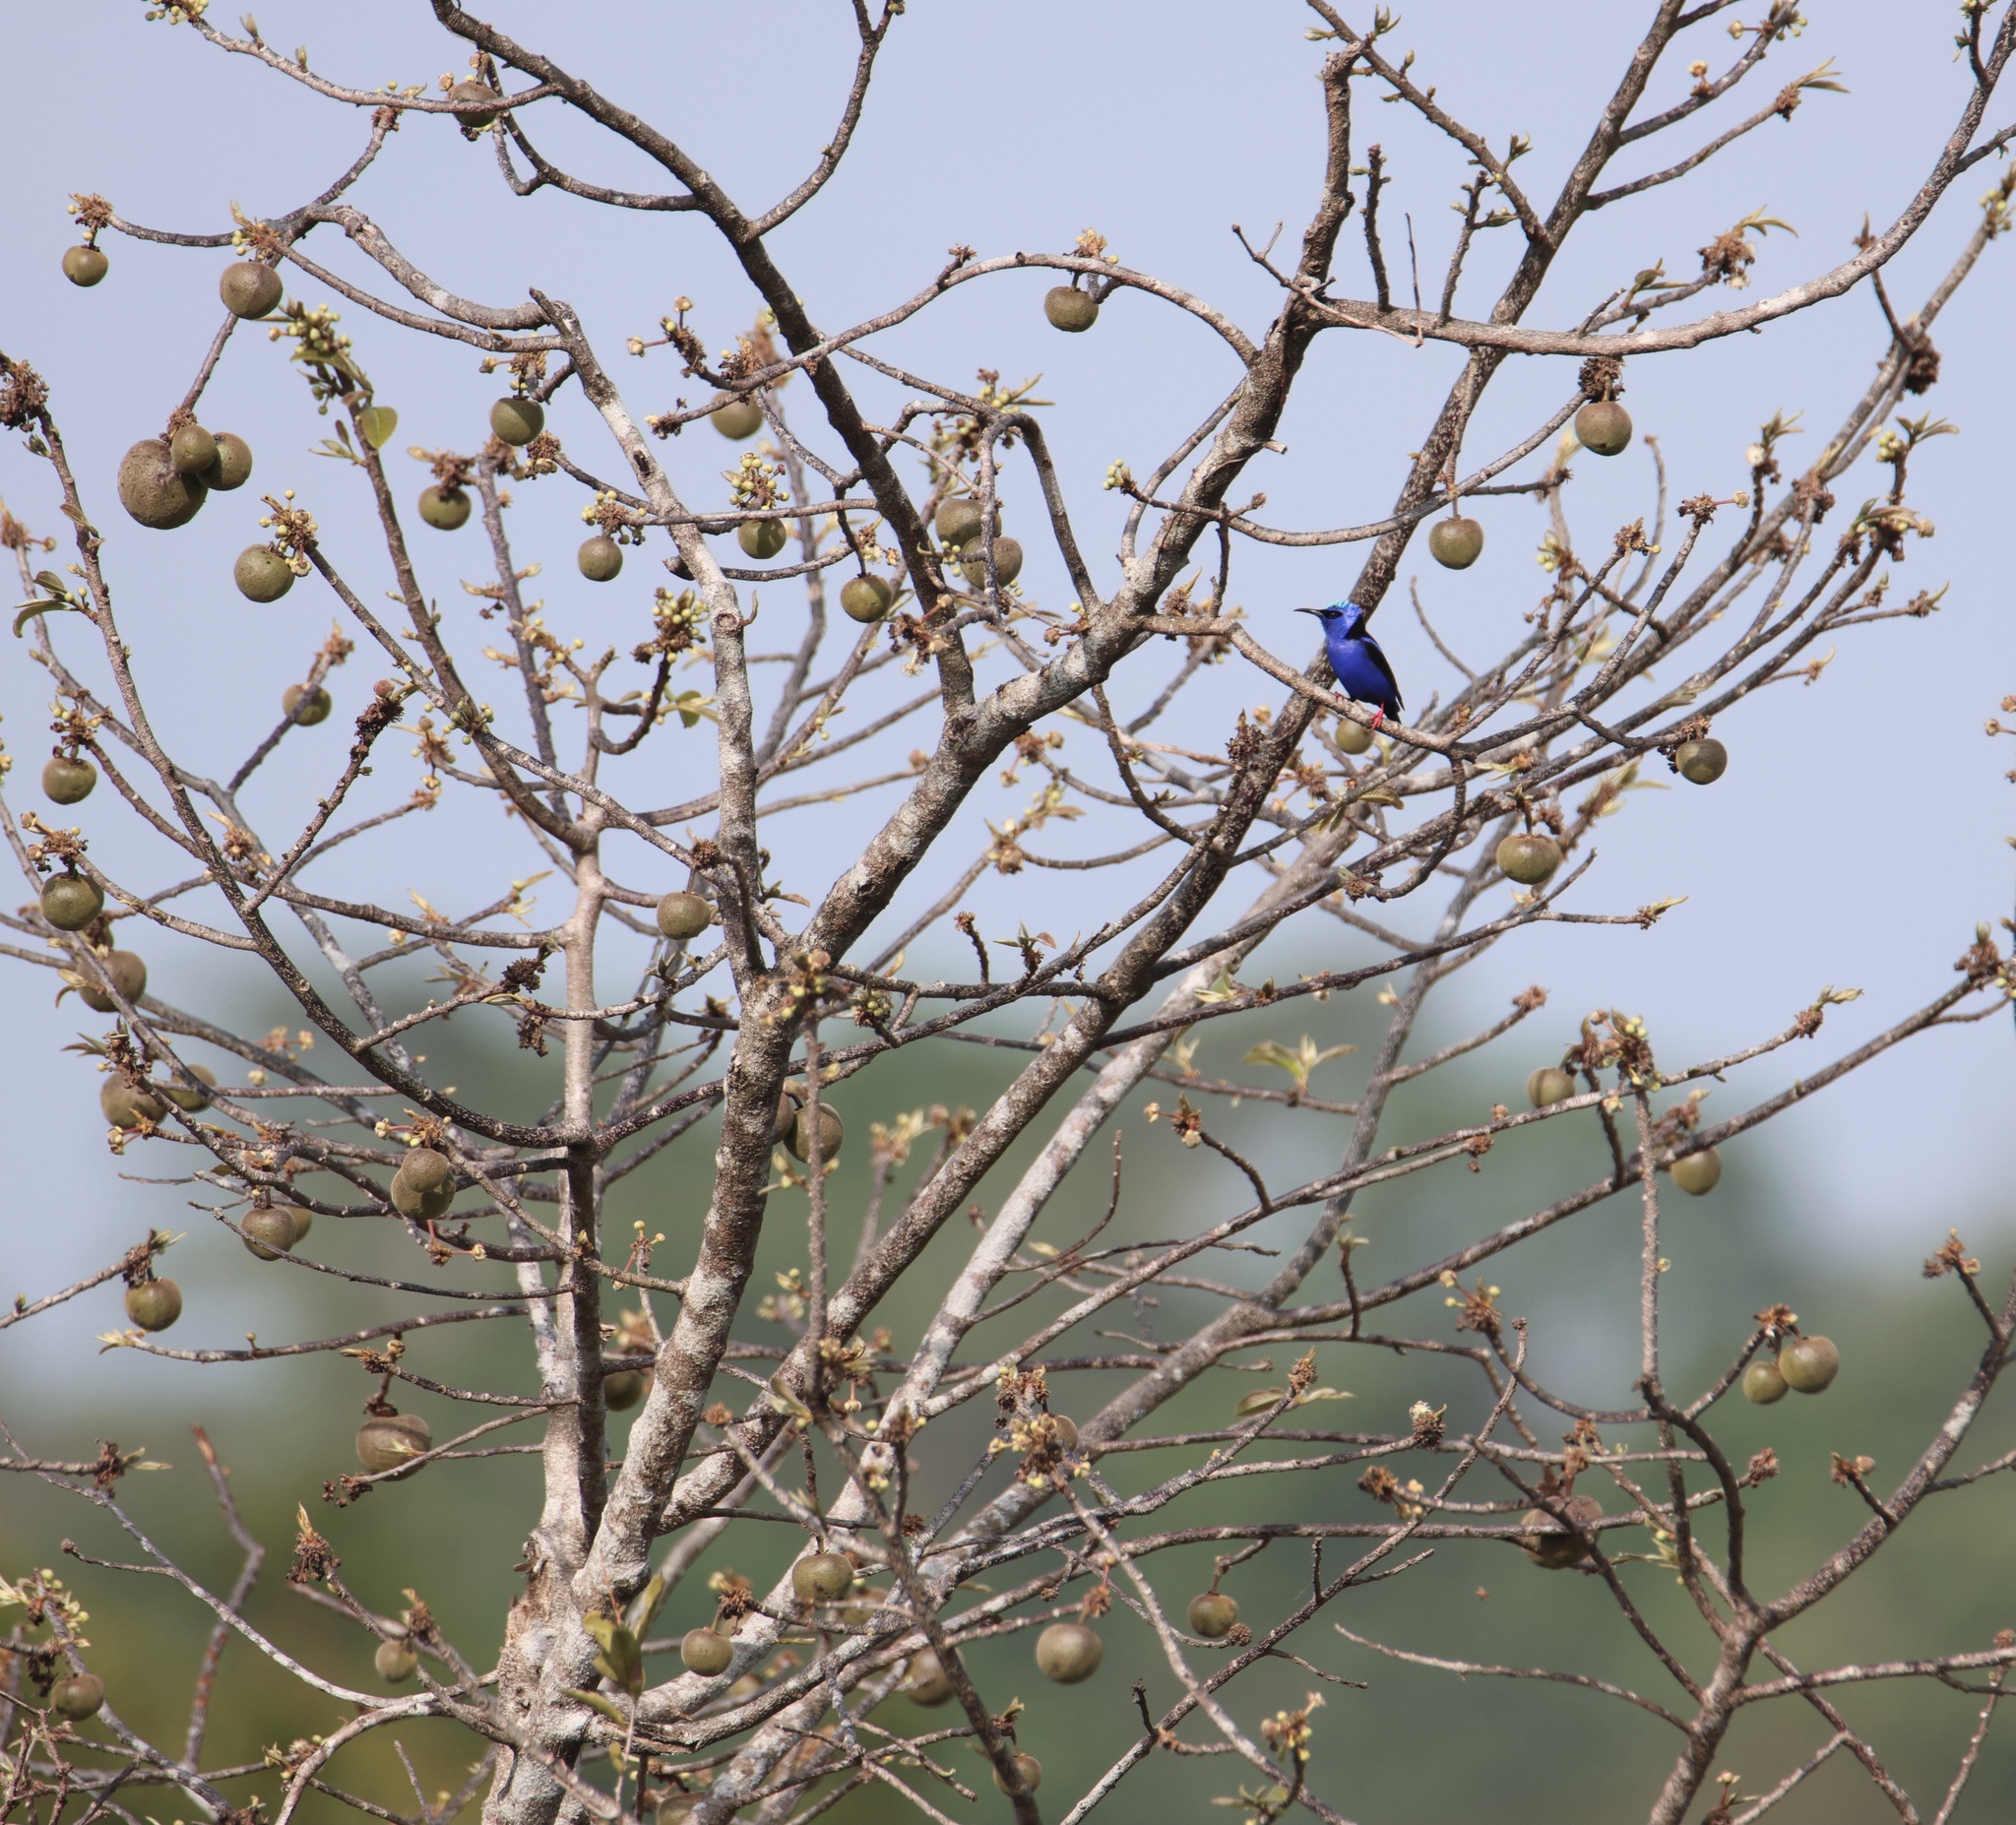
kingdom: Animalia
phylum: Chordata
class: Aves
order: Passeriformes
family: Thraupidae
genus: Cyanerpes
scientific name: Cyanerpes cyaneus
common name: Red-legged honeycreeper
